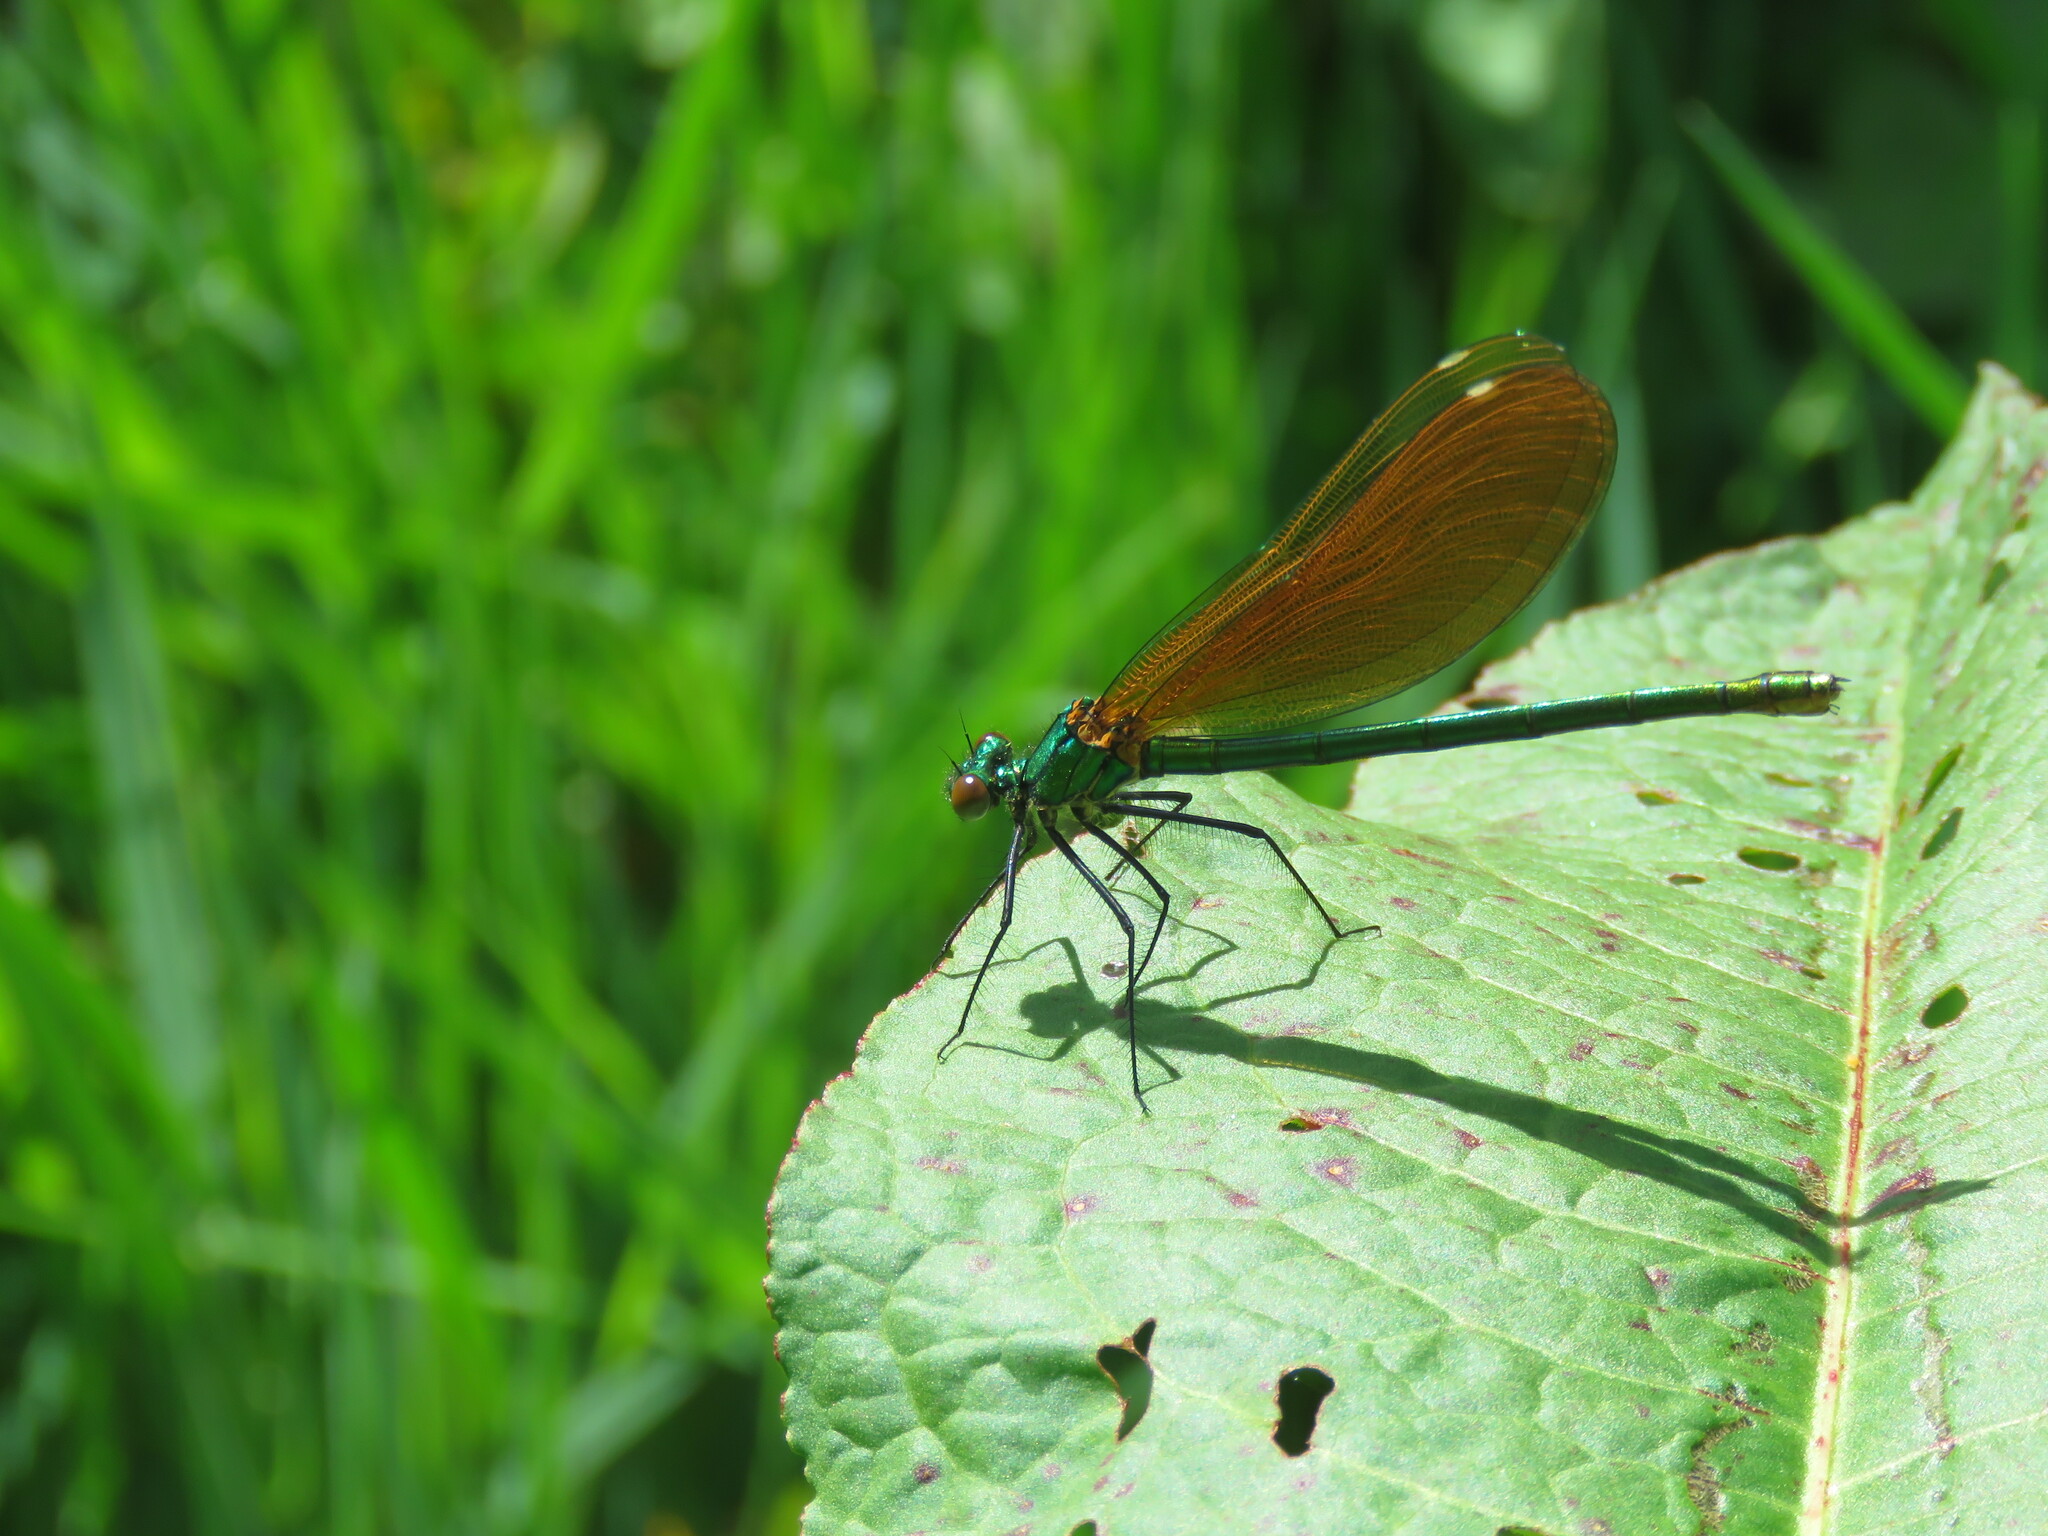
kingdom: Animalia
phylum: Arthropoda
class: Insecta
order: Odonata
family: Calopterygidae
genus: Calopteryx
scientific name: Calopteryx virgo
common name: Beautiful demoiselle
